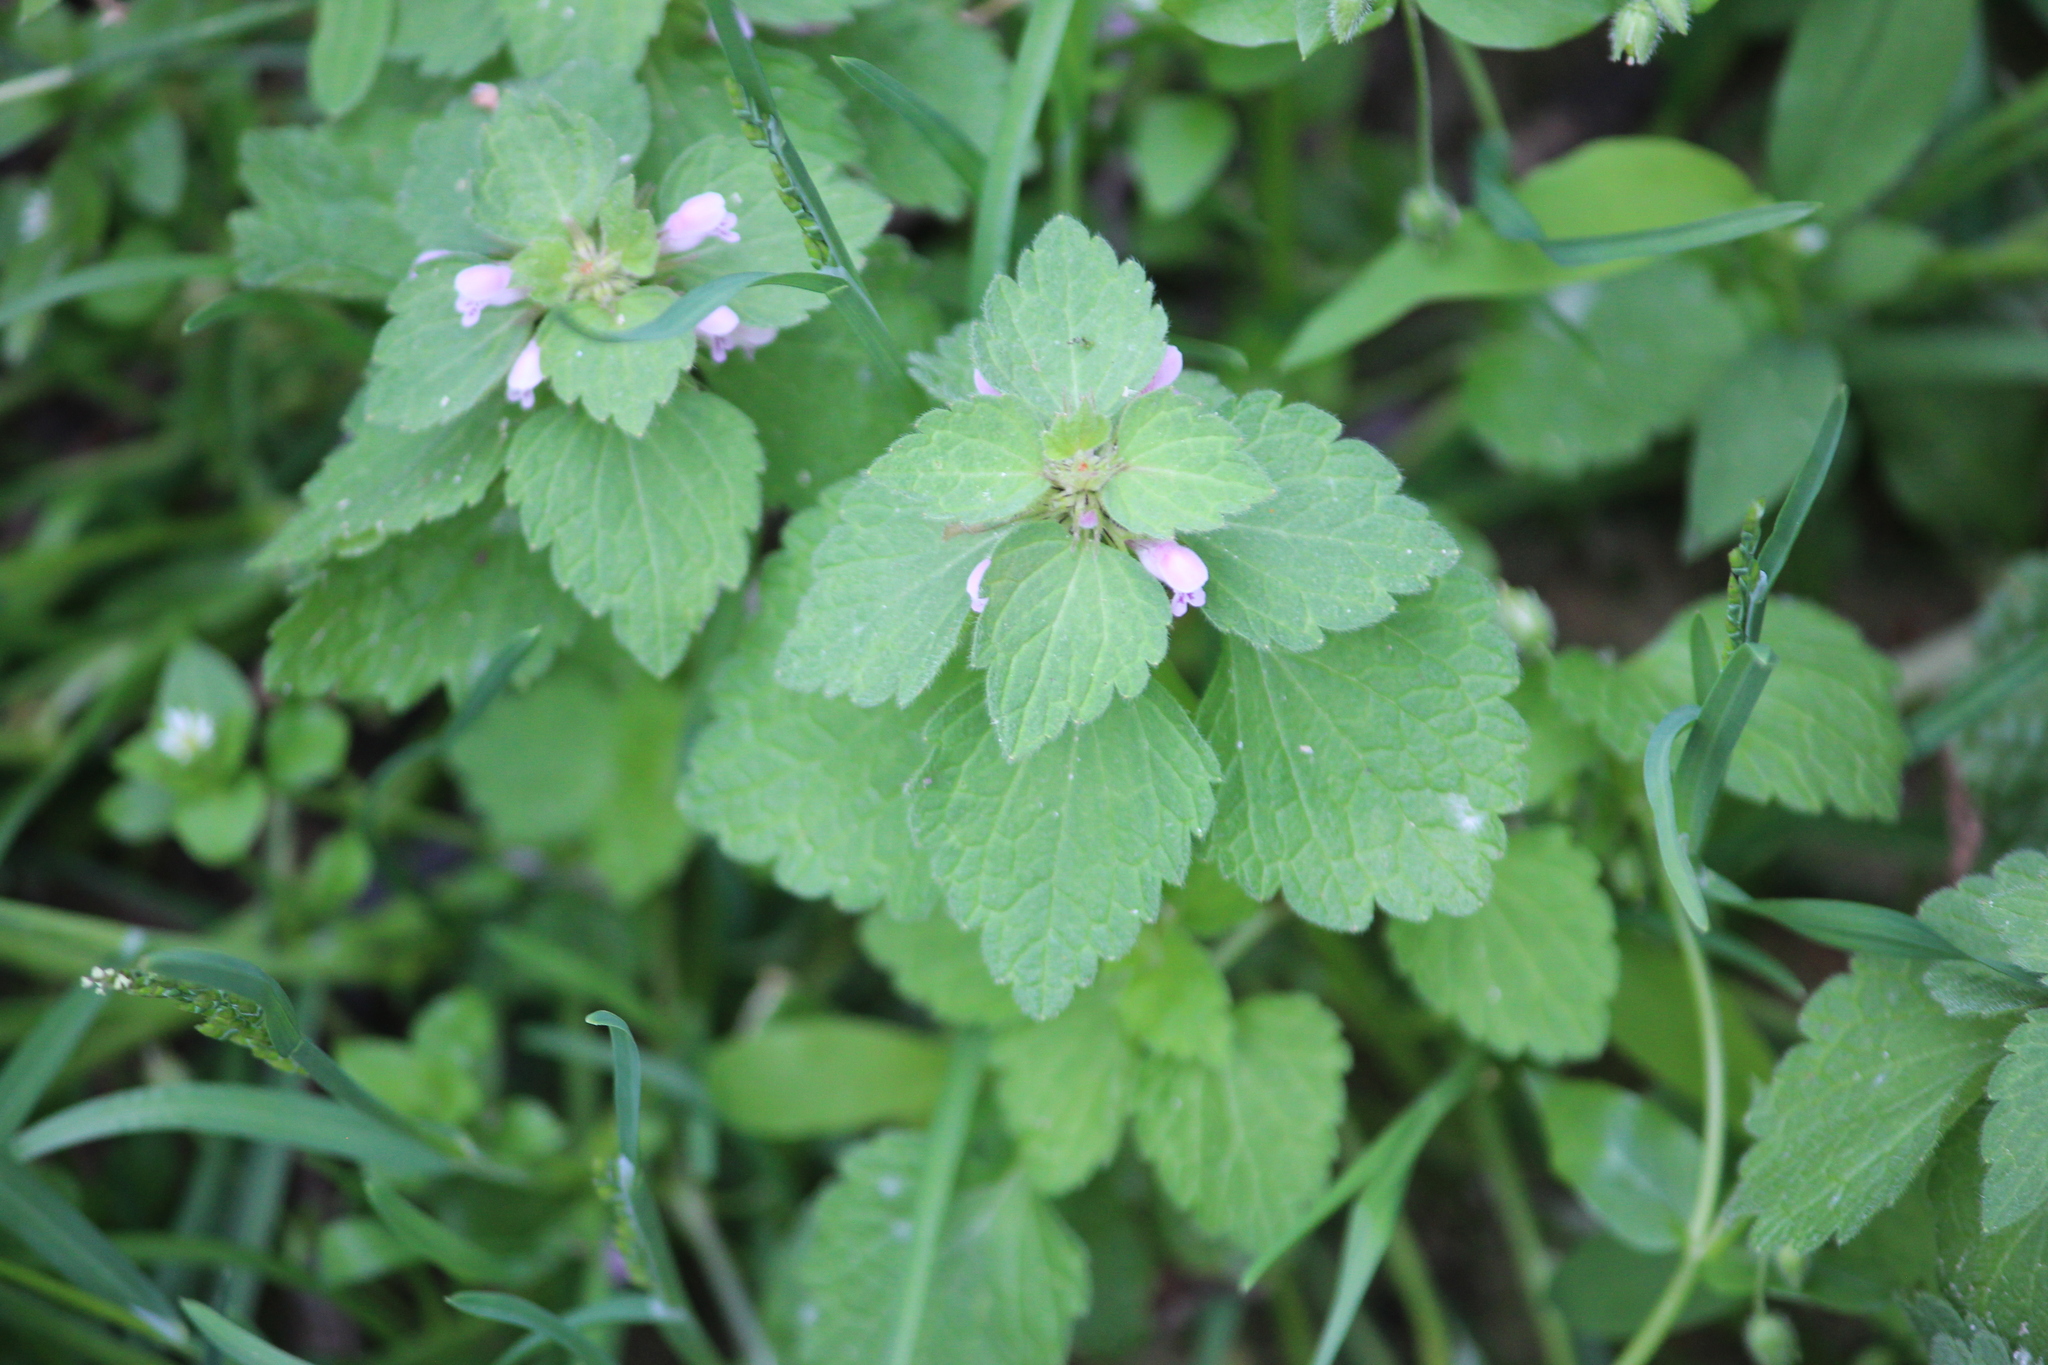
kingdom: Plantae
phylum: Tracheophyta
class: Magnoliopsida
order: Lamiales
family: Lamiaceae
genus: Lamium
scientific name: Lamium purpureum
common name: Red dead-nettle
